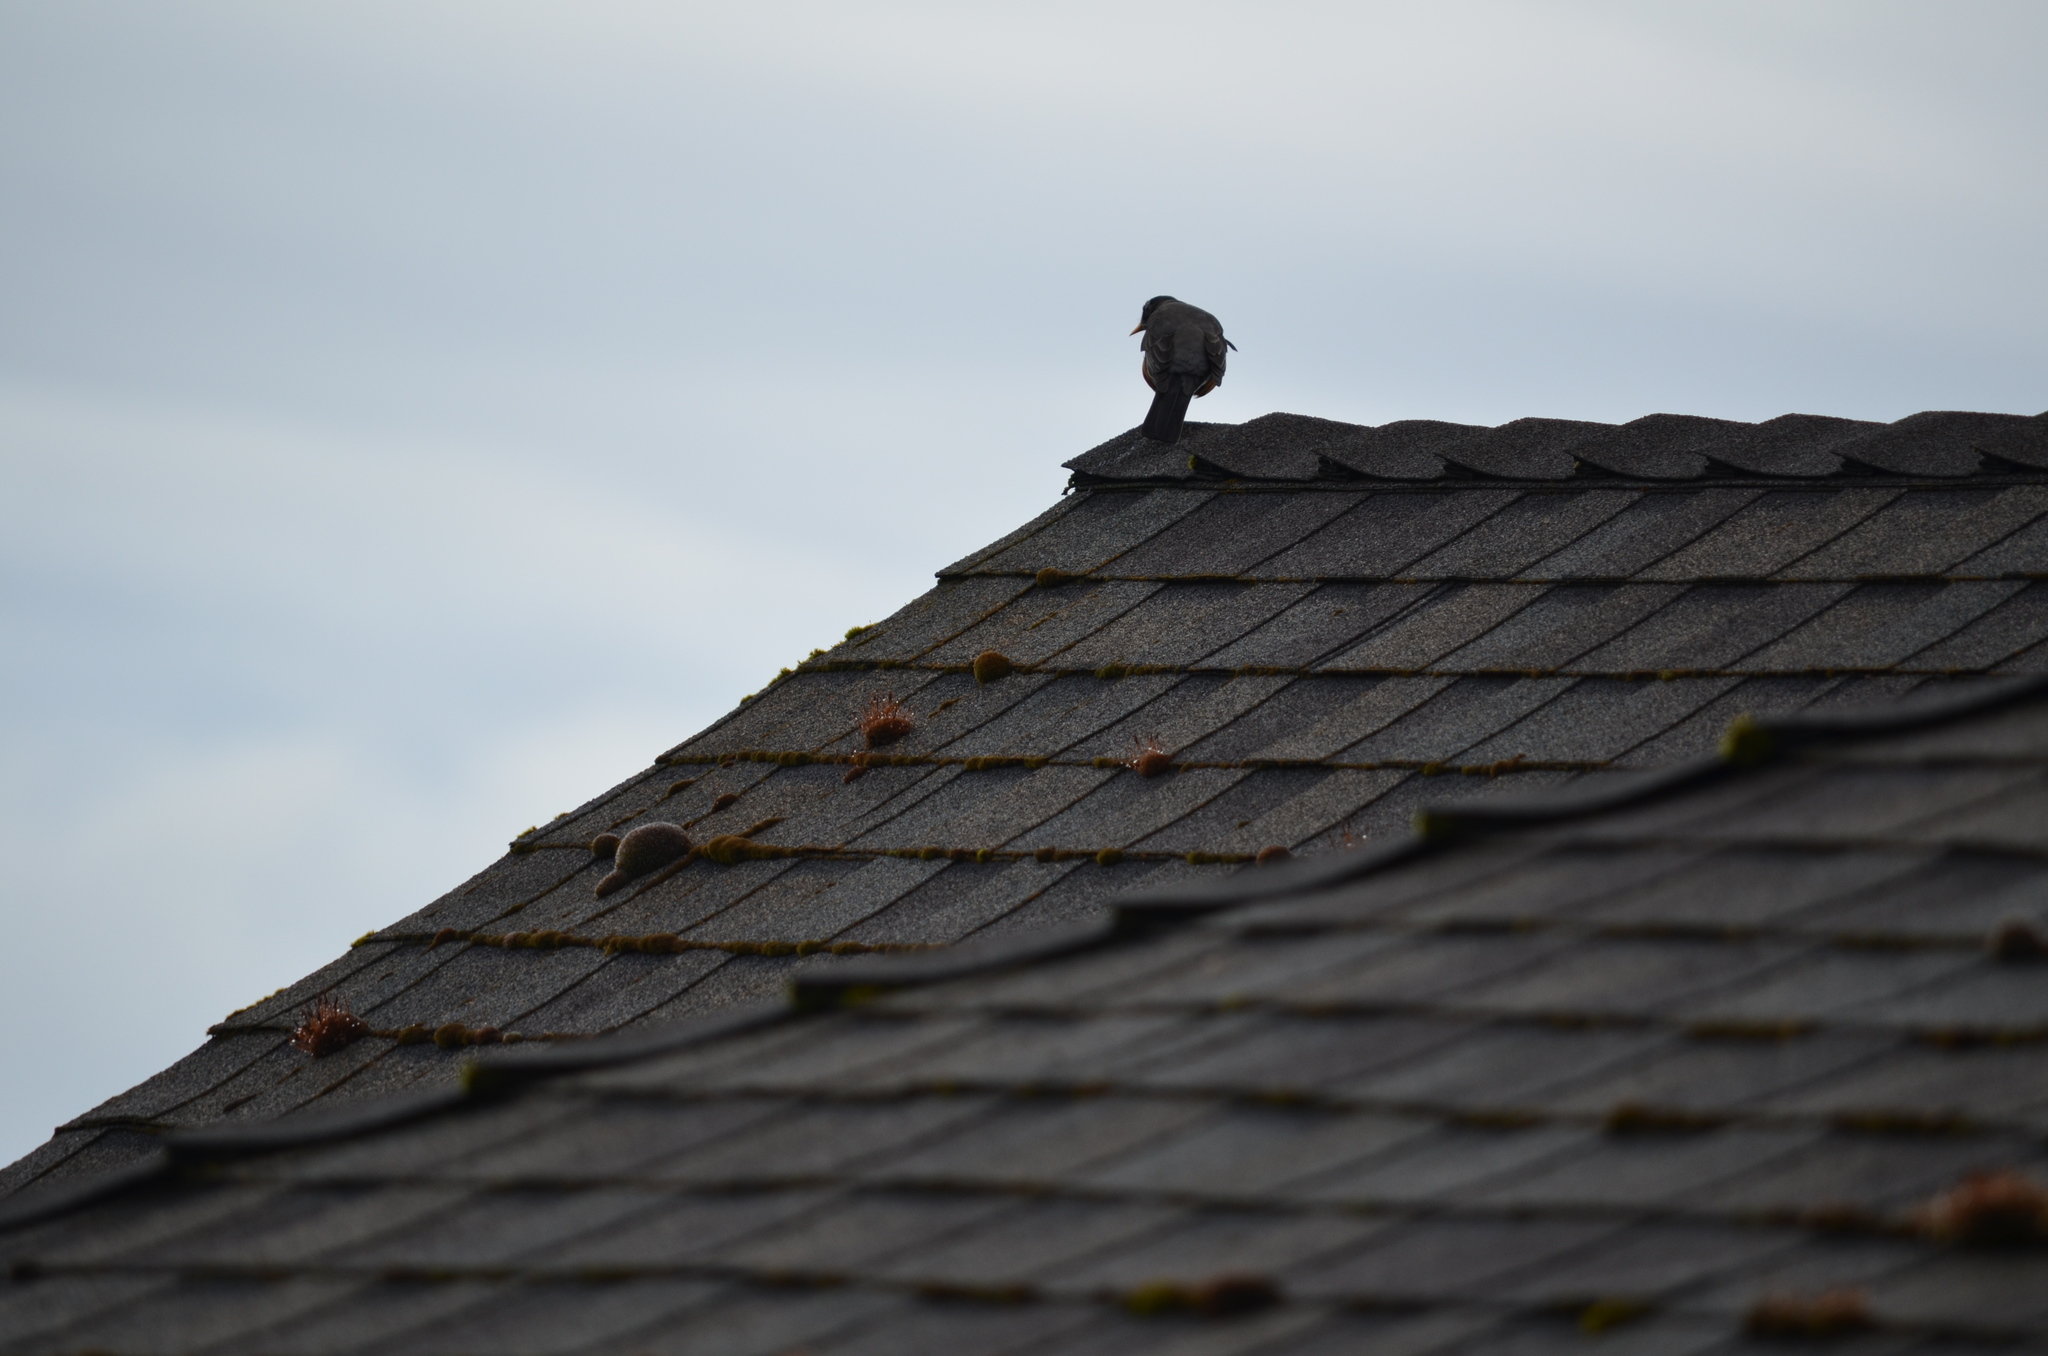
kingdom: Animalia
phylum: Chordata
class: Aves
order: Passeriformes
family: Turdidae
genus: Turdus
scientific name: Turdus migratorius
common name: American robin
